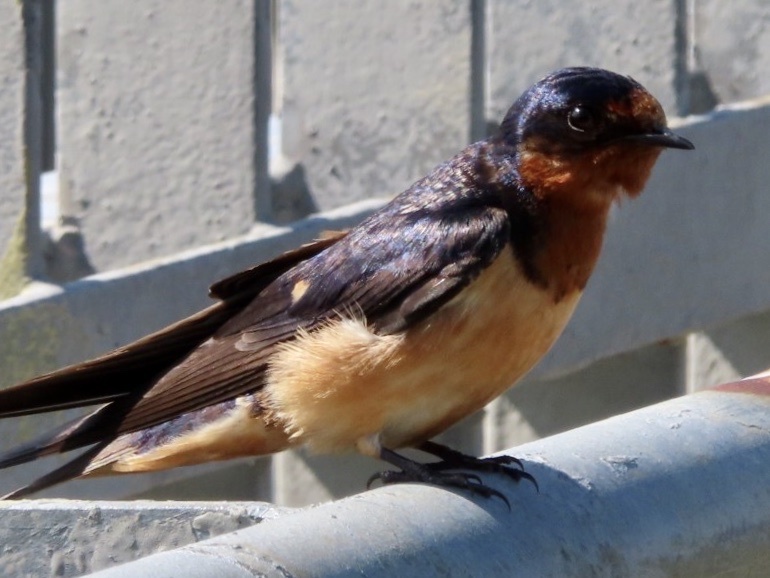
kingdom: Animalia
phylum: Chordata
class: Aves
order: Passeriformes
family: Hirundinidae
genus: Hirundo
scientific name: Hirundo rustica
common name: Barn swallow
